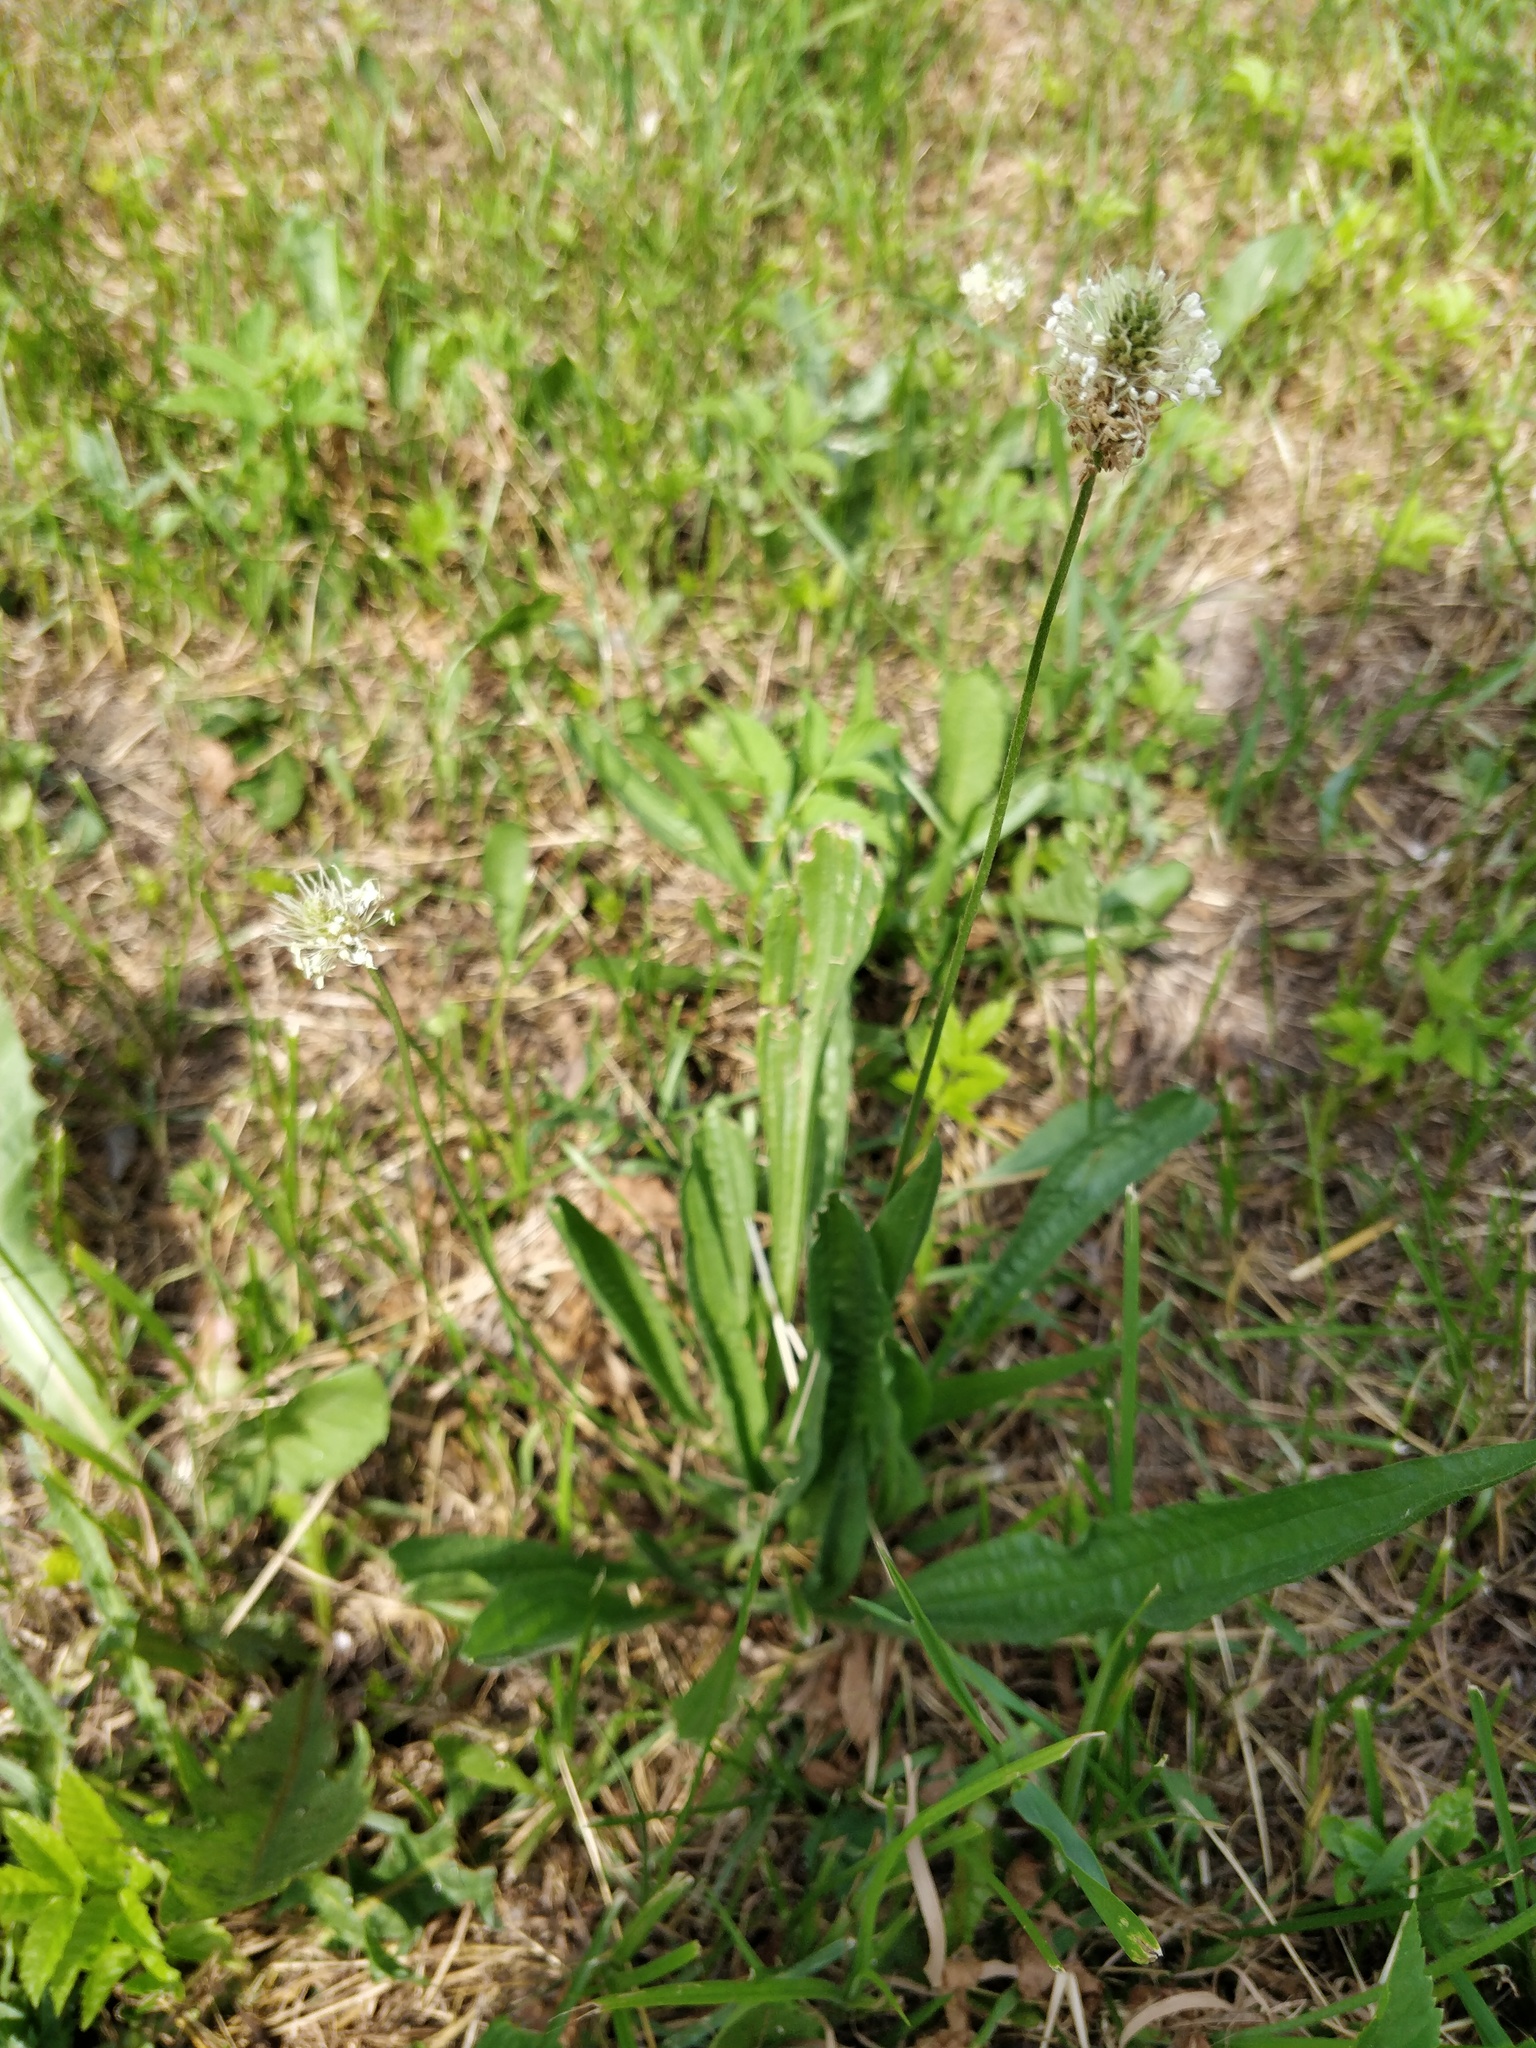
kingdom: Plantae
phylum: Tracheophyta
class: Magnoliopsida
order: Lamiales
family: Plantaginaceae
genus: Plantago
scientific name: Plantago lanceolata
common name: Ribwort plantain
